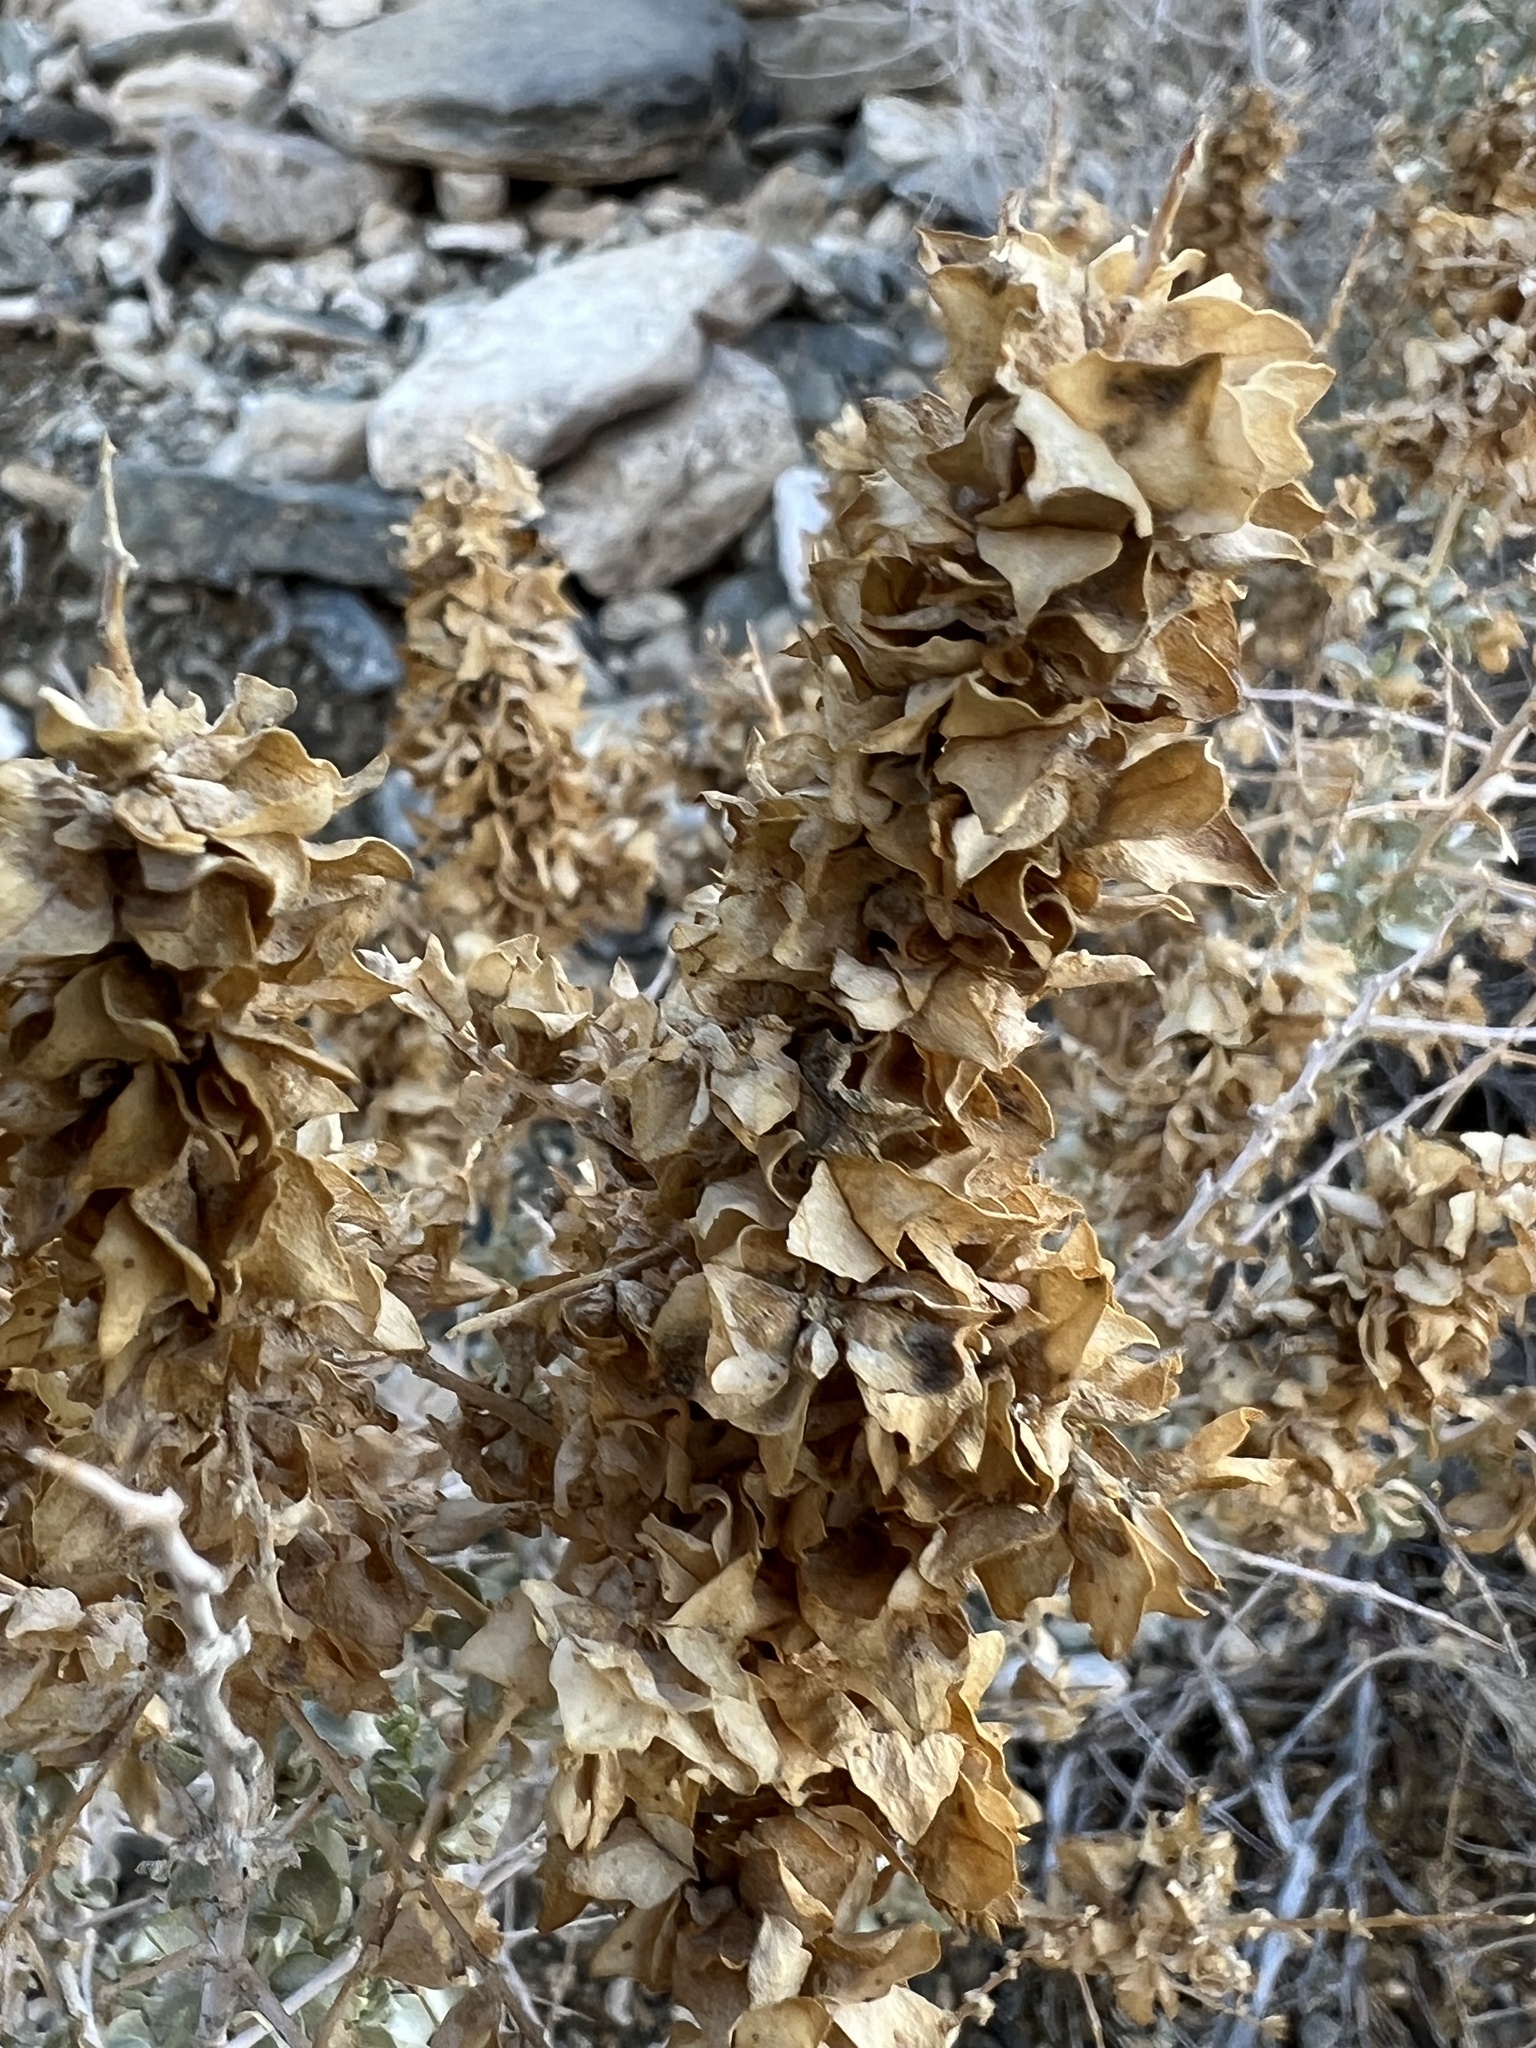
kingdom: Plantae
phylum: Tracheophyta
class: Magnoliopsida
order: Caryophyllales
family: Amaranthaceae
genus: Atriplex
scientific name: Atriplex confertifolia
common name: Shadscale
